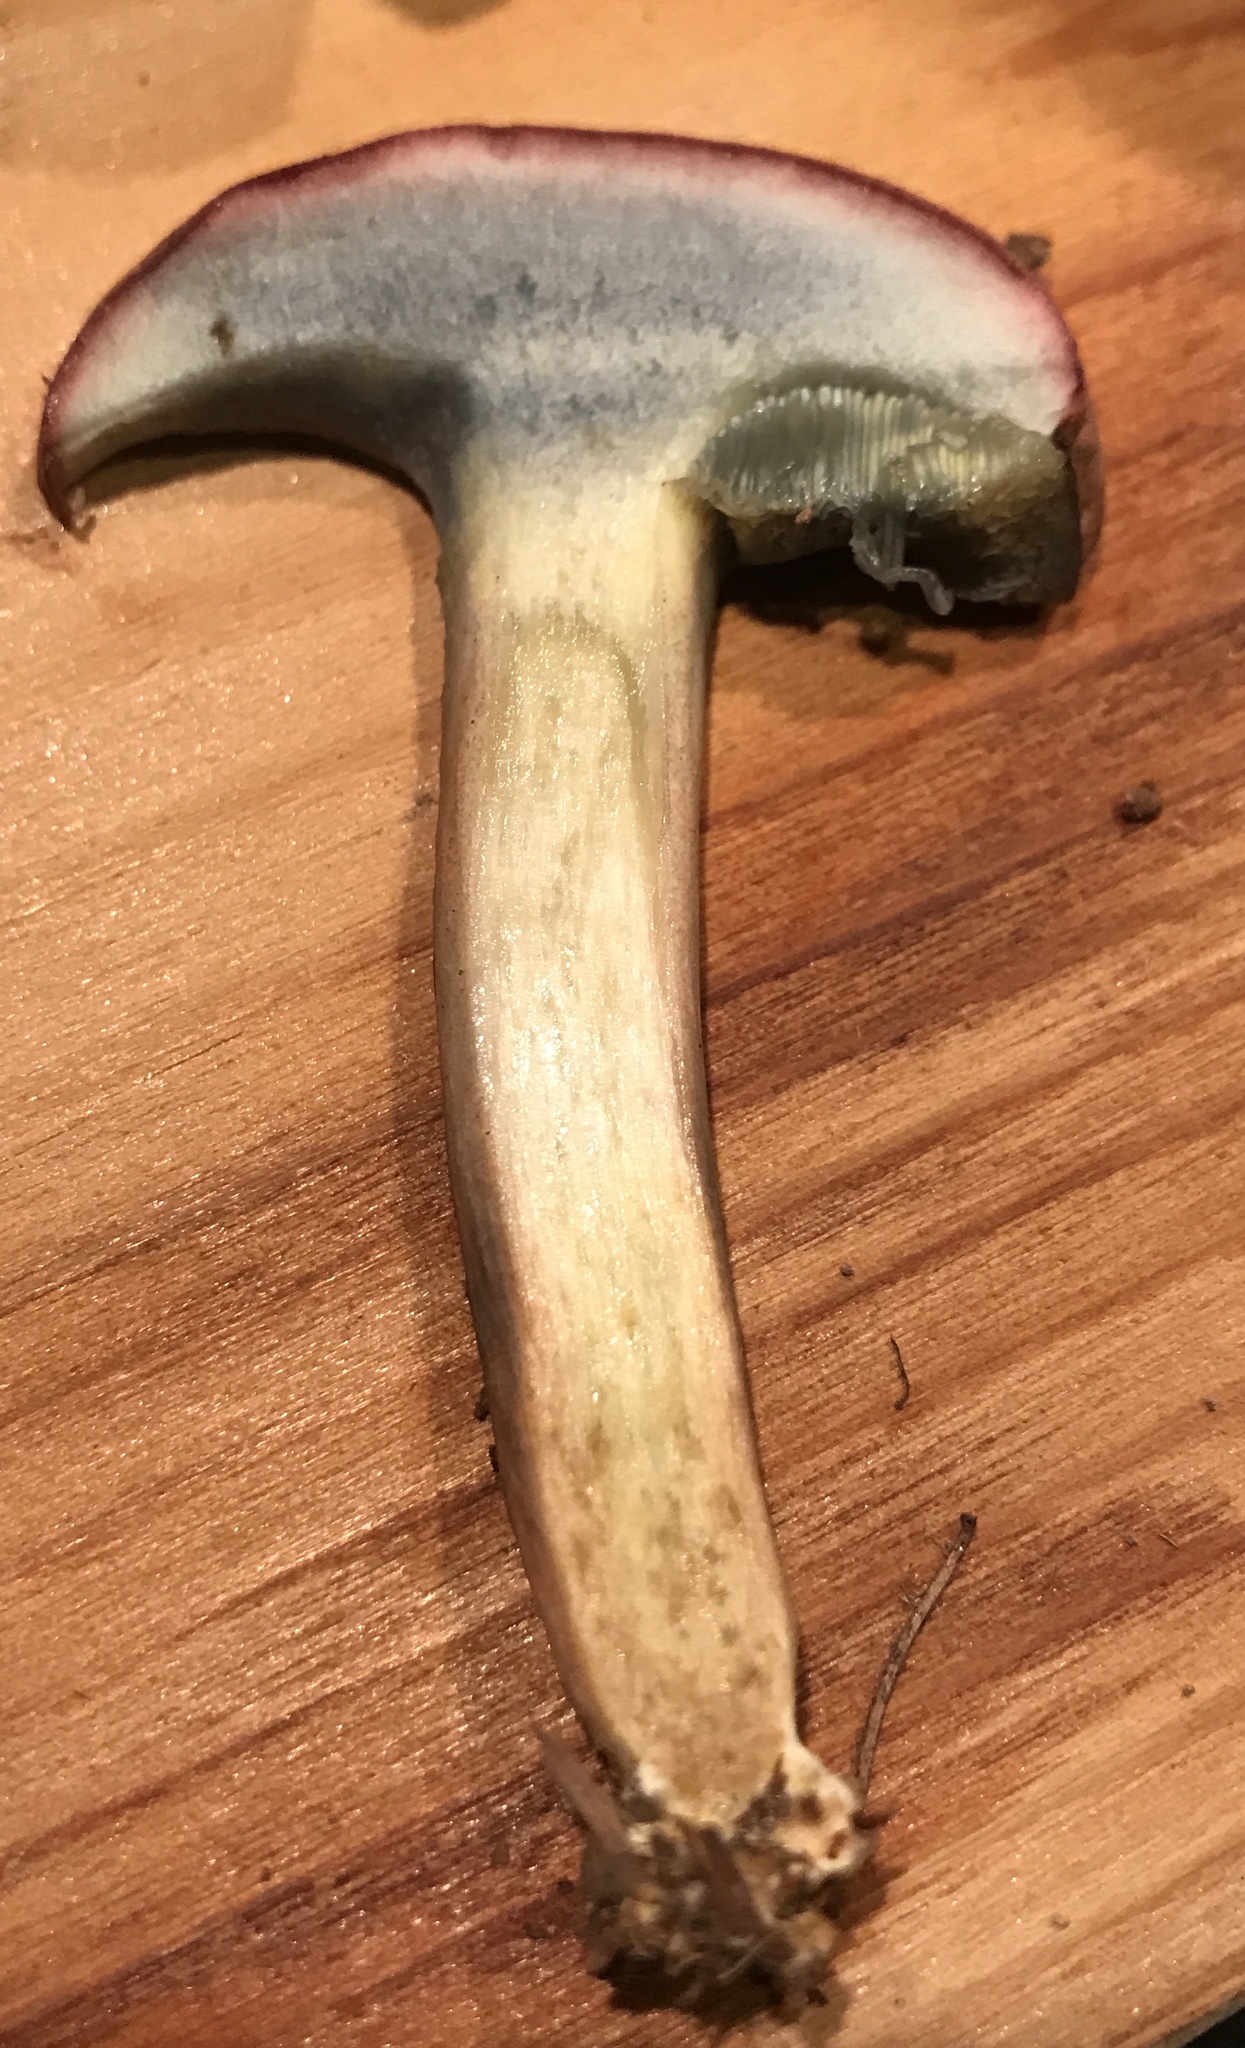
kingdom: Fungi
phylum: Basidiomycota
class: Agaricomycetes
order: Boletales
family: Boletaceae
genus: Boletus
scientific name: Boletus patrioticus
